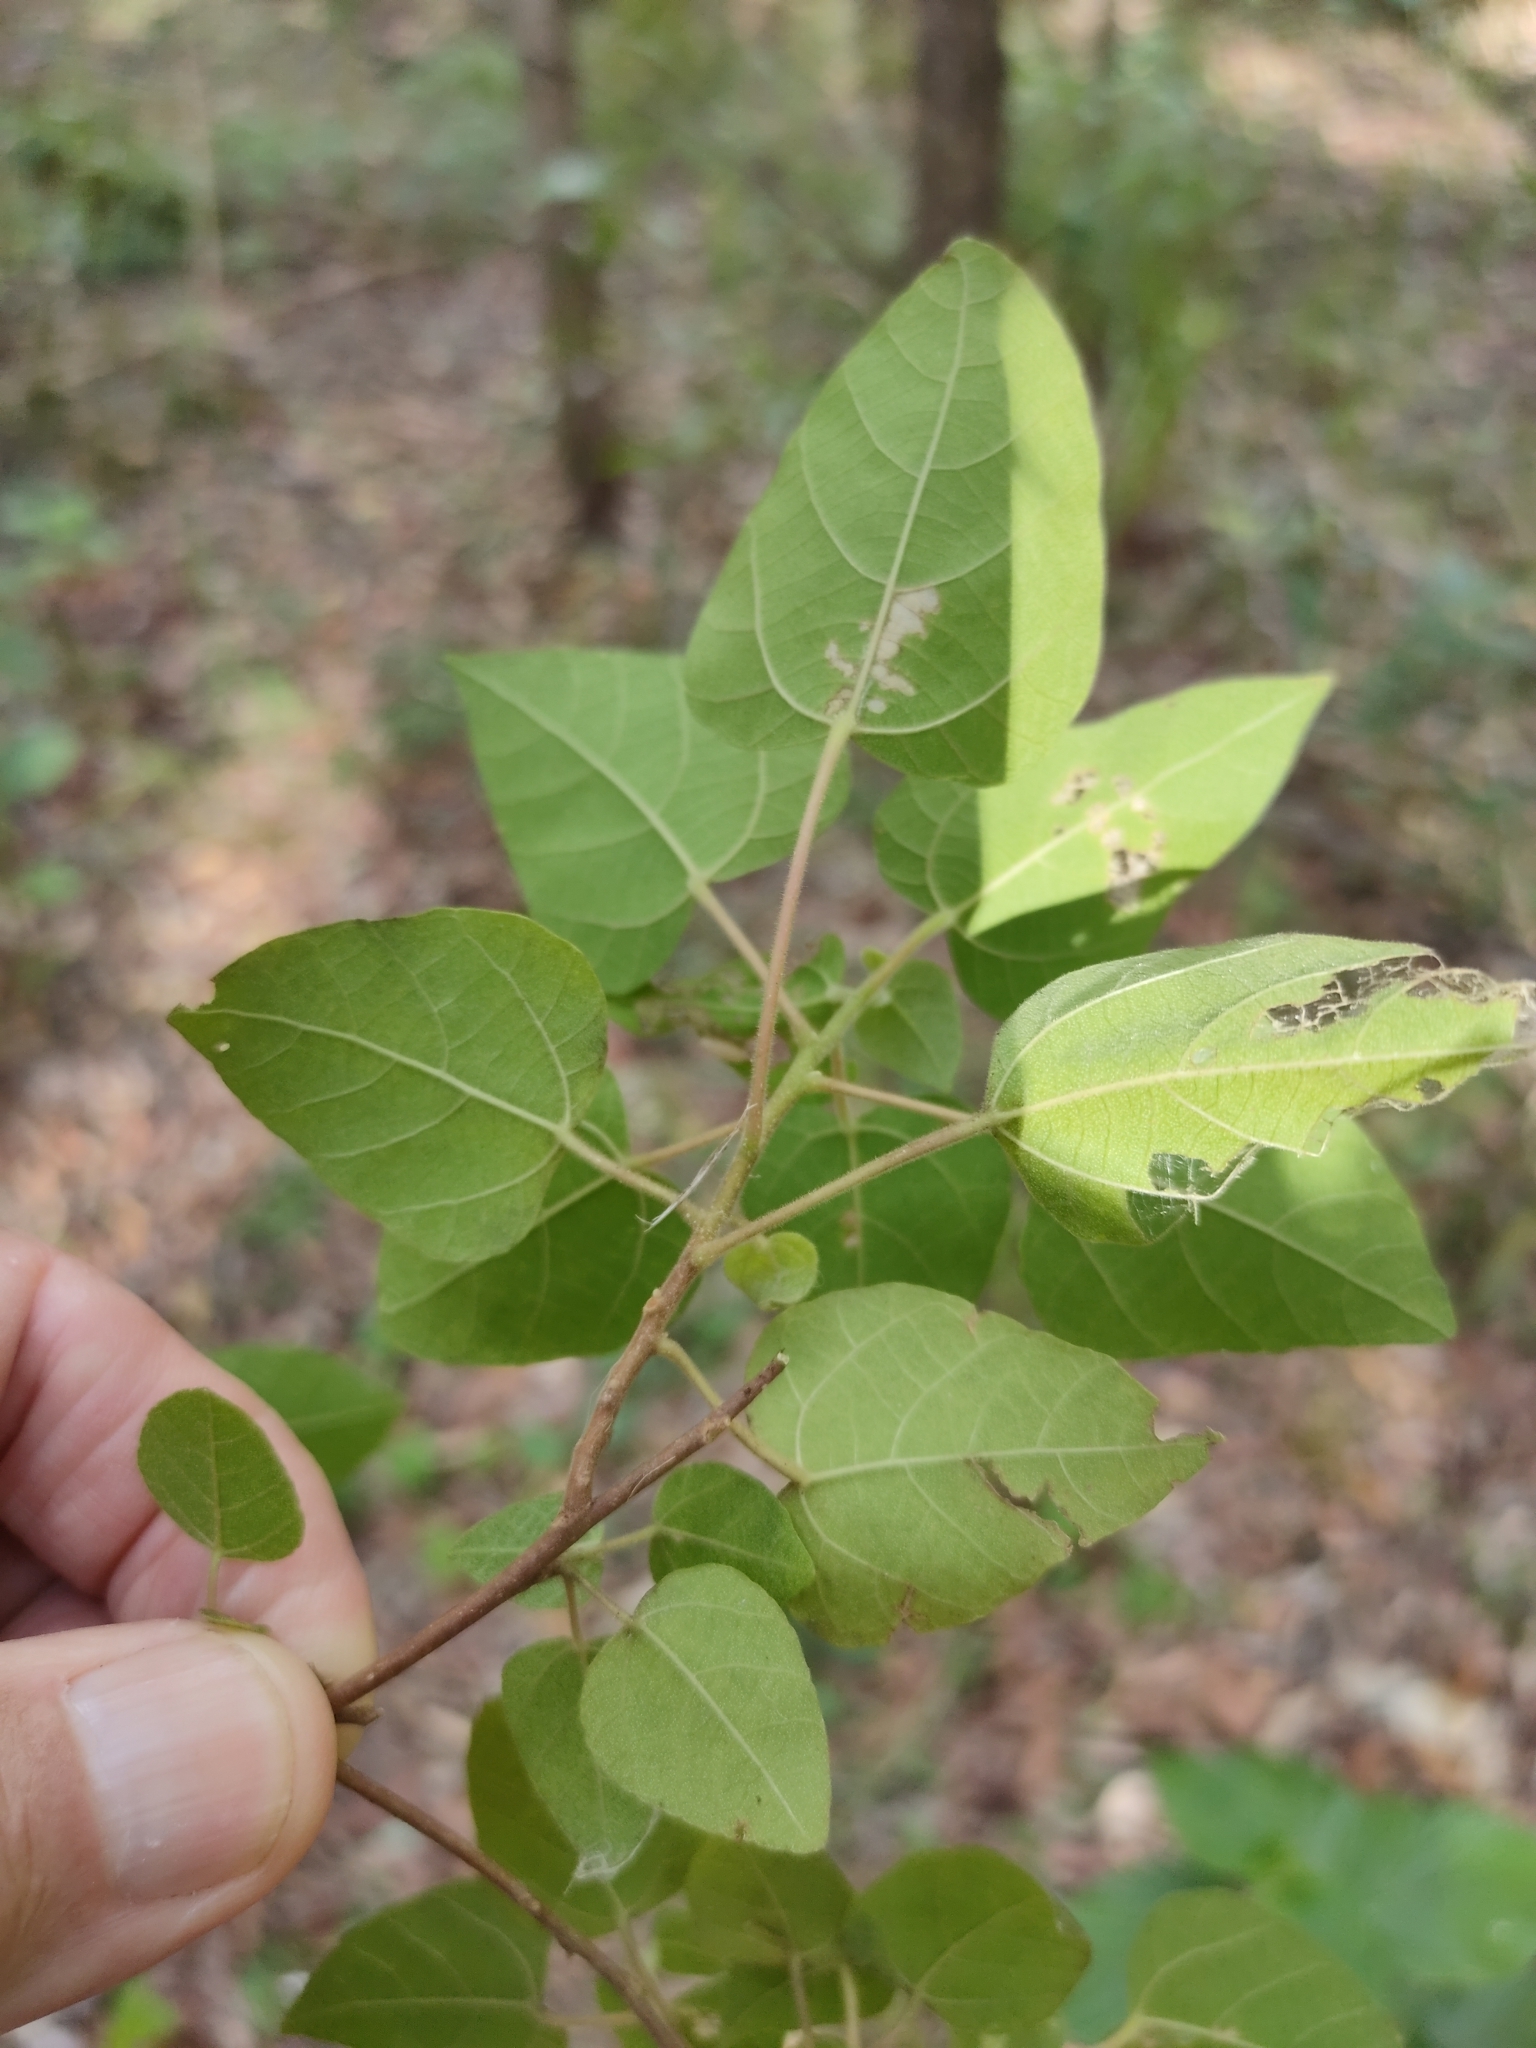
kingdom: Plantae
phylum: Tracheophyta
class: Magnoliopsida
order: Malpighiales
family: Euphorbiaceae
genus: Mallotus
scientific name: Mallotus discolor
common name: White kamala
